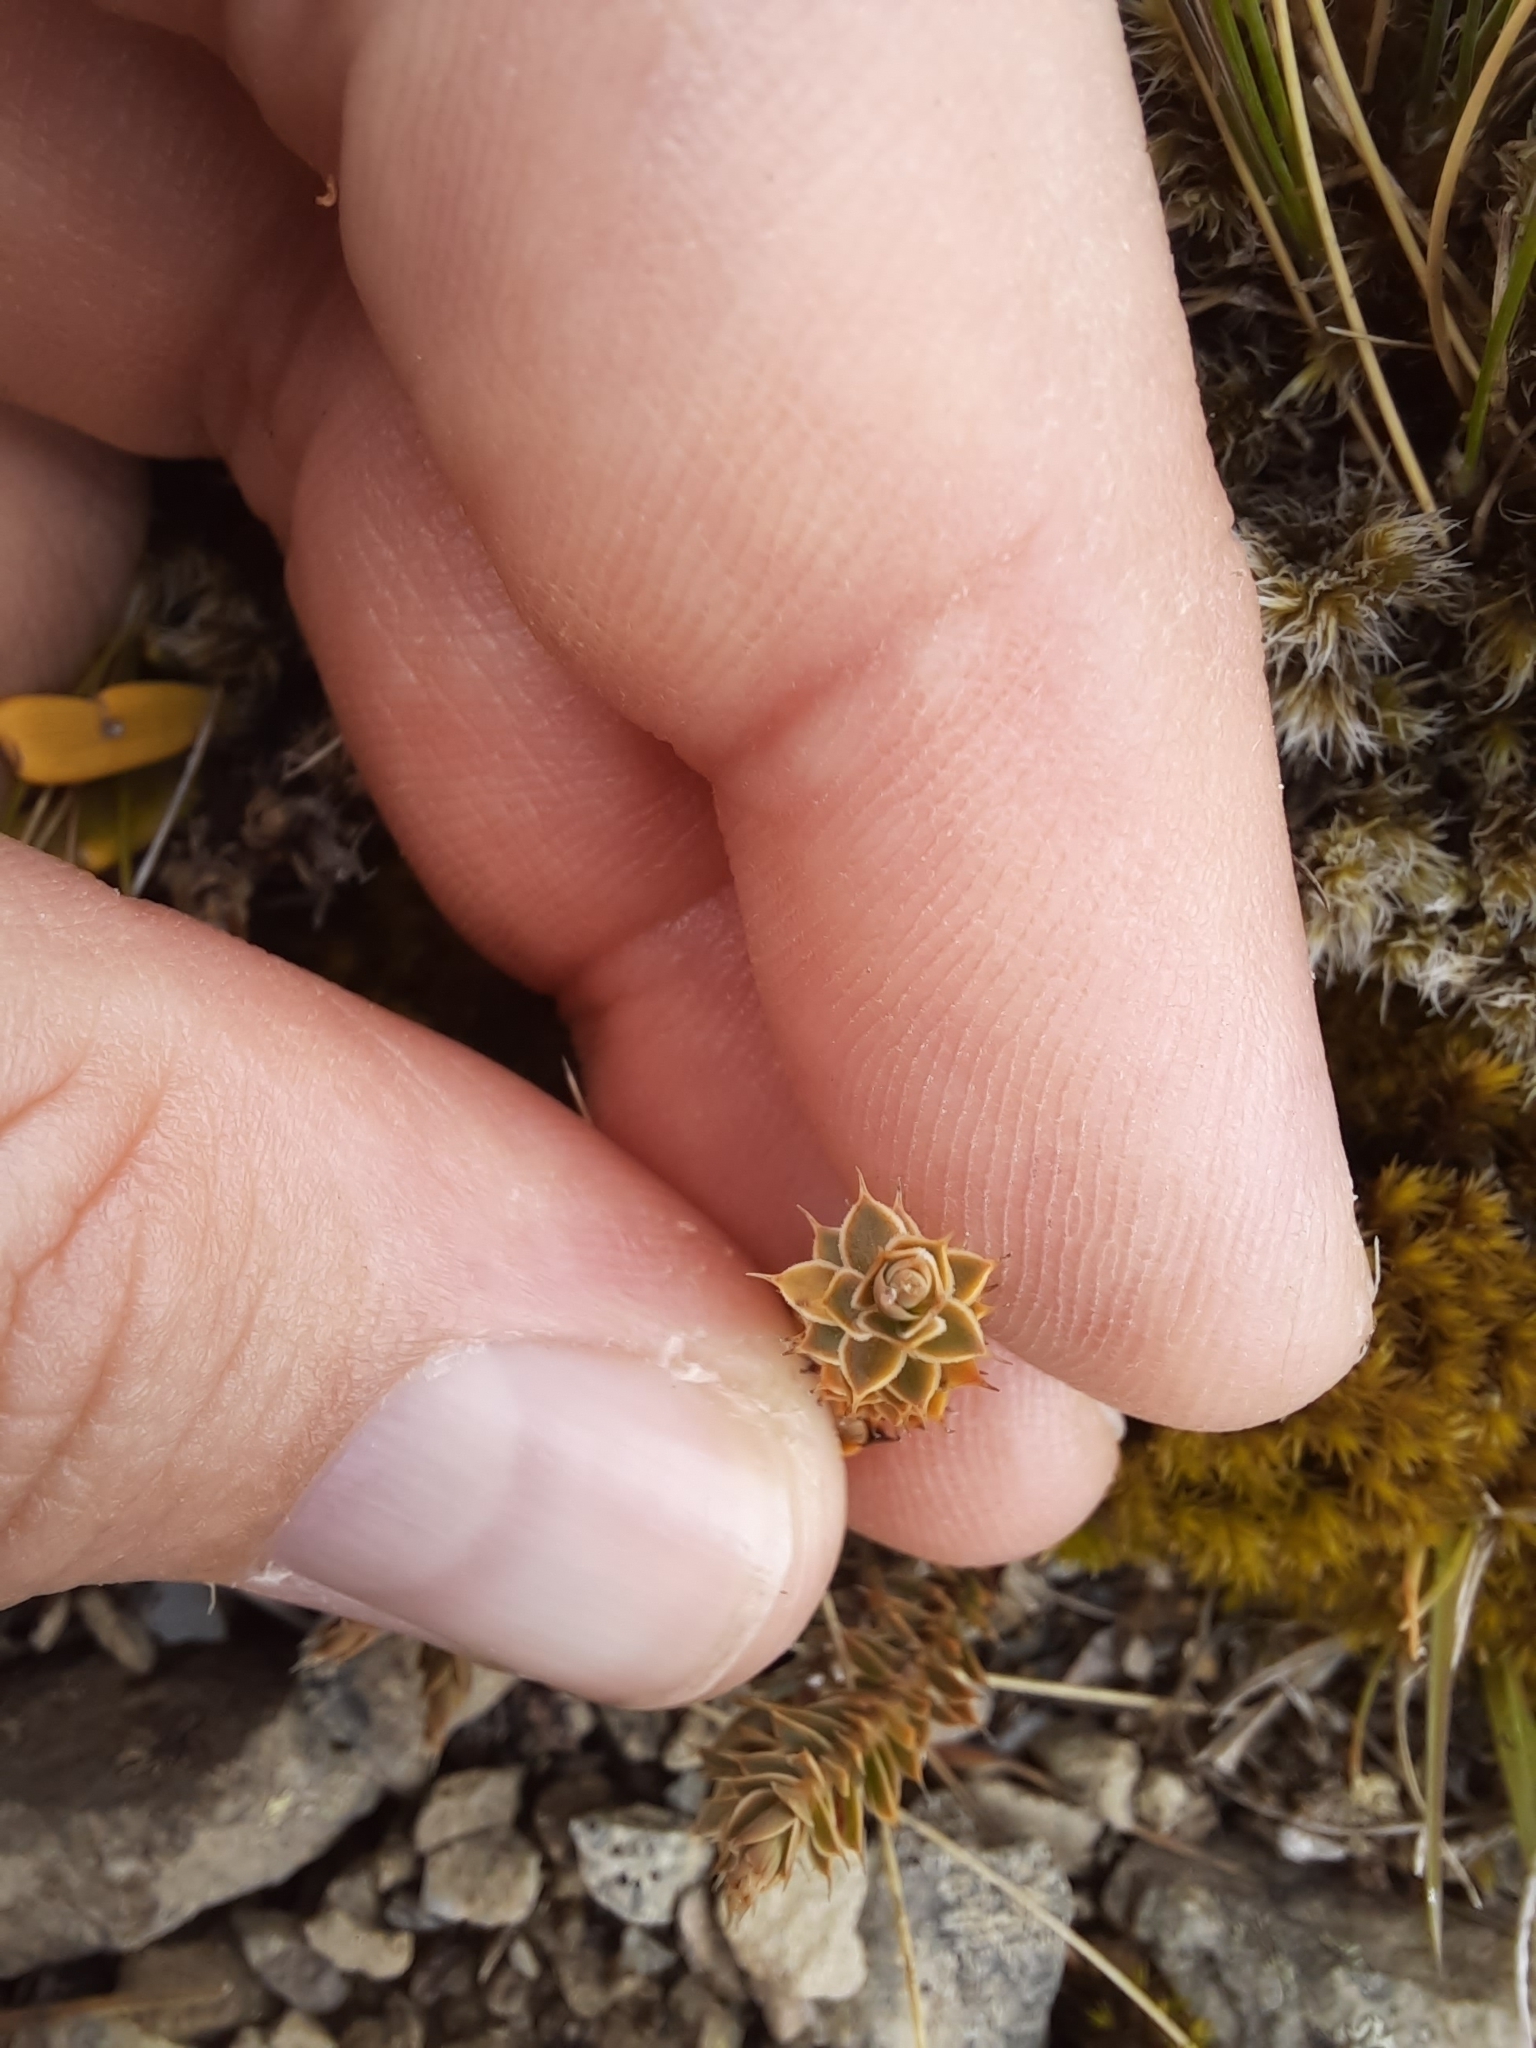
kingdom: Plantae
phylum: Tracheophyta
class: Magnoliopsida
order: Ericales
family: Ericaceae
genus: Styphelia
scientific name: Styphelia nesophila
